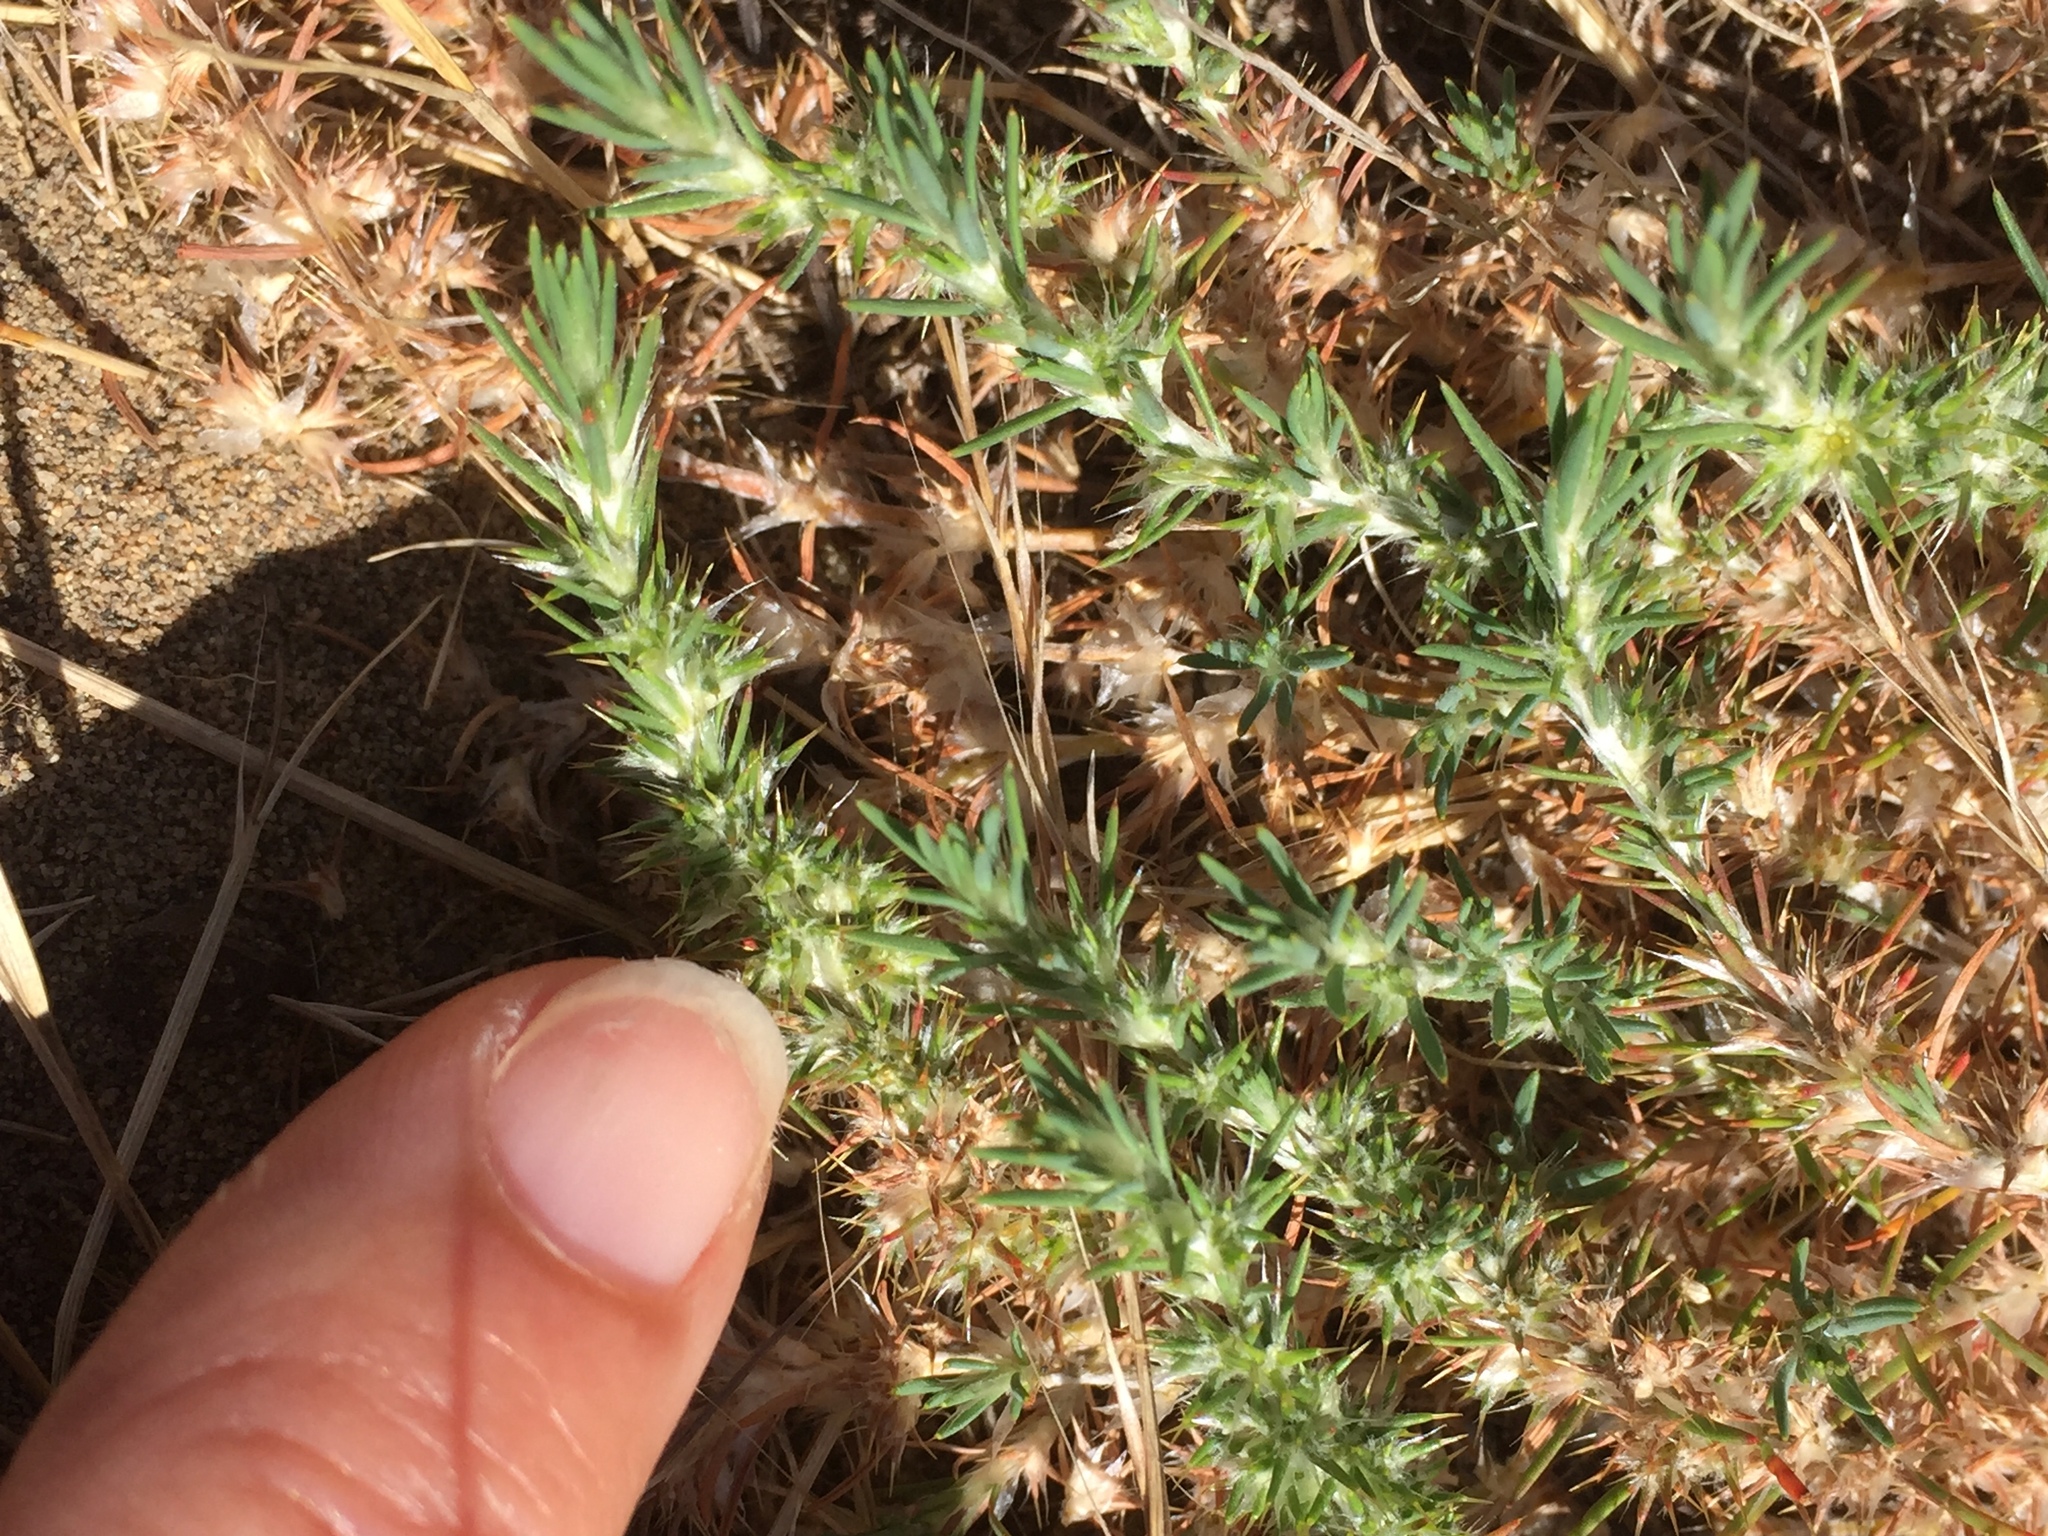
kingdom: Plantae
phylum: Tracheophyta
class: Magnoliopsida
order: Caryophyllales
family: Caryophyllaceae
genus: Cardionema
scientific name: Cardionema ramosissima
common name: Sandcarpet
